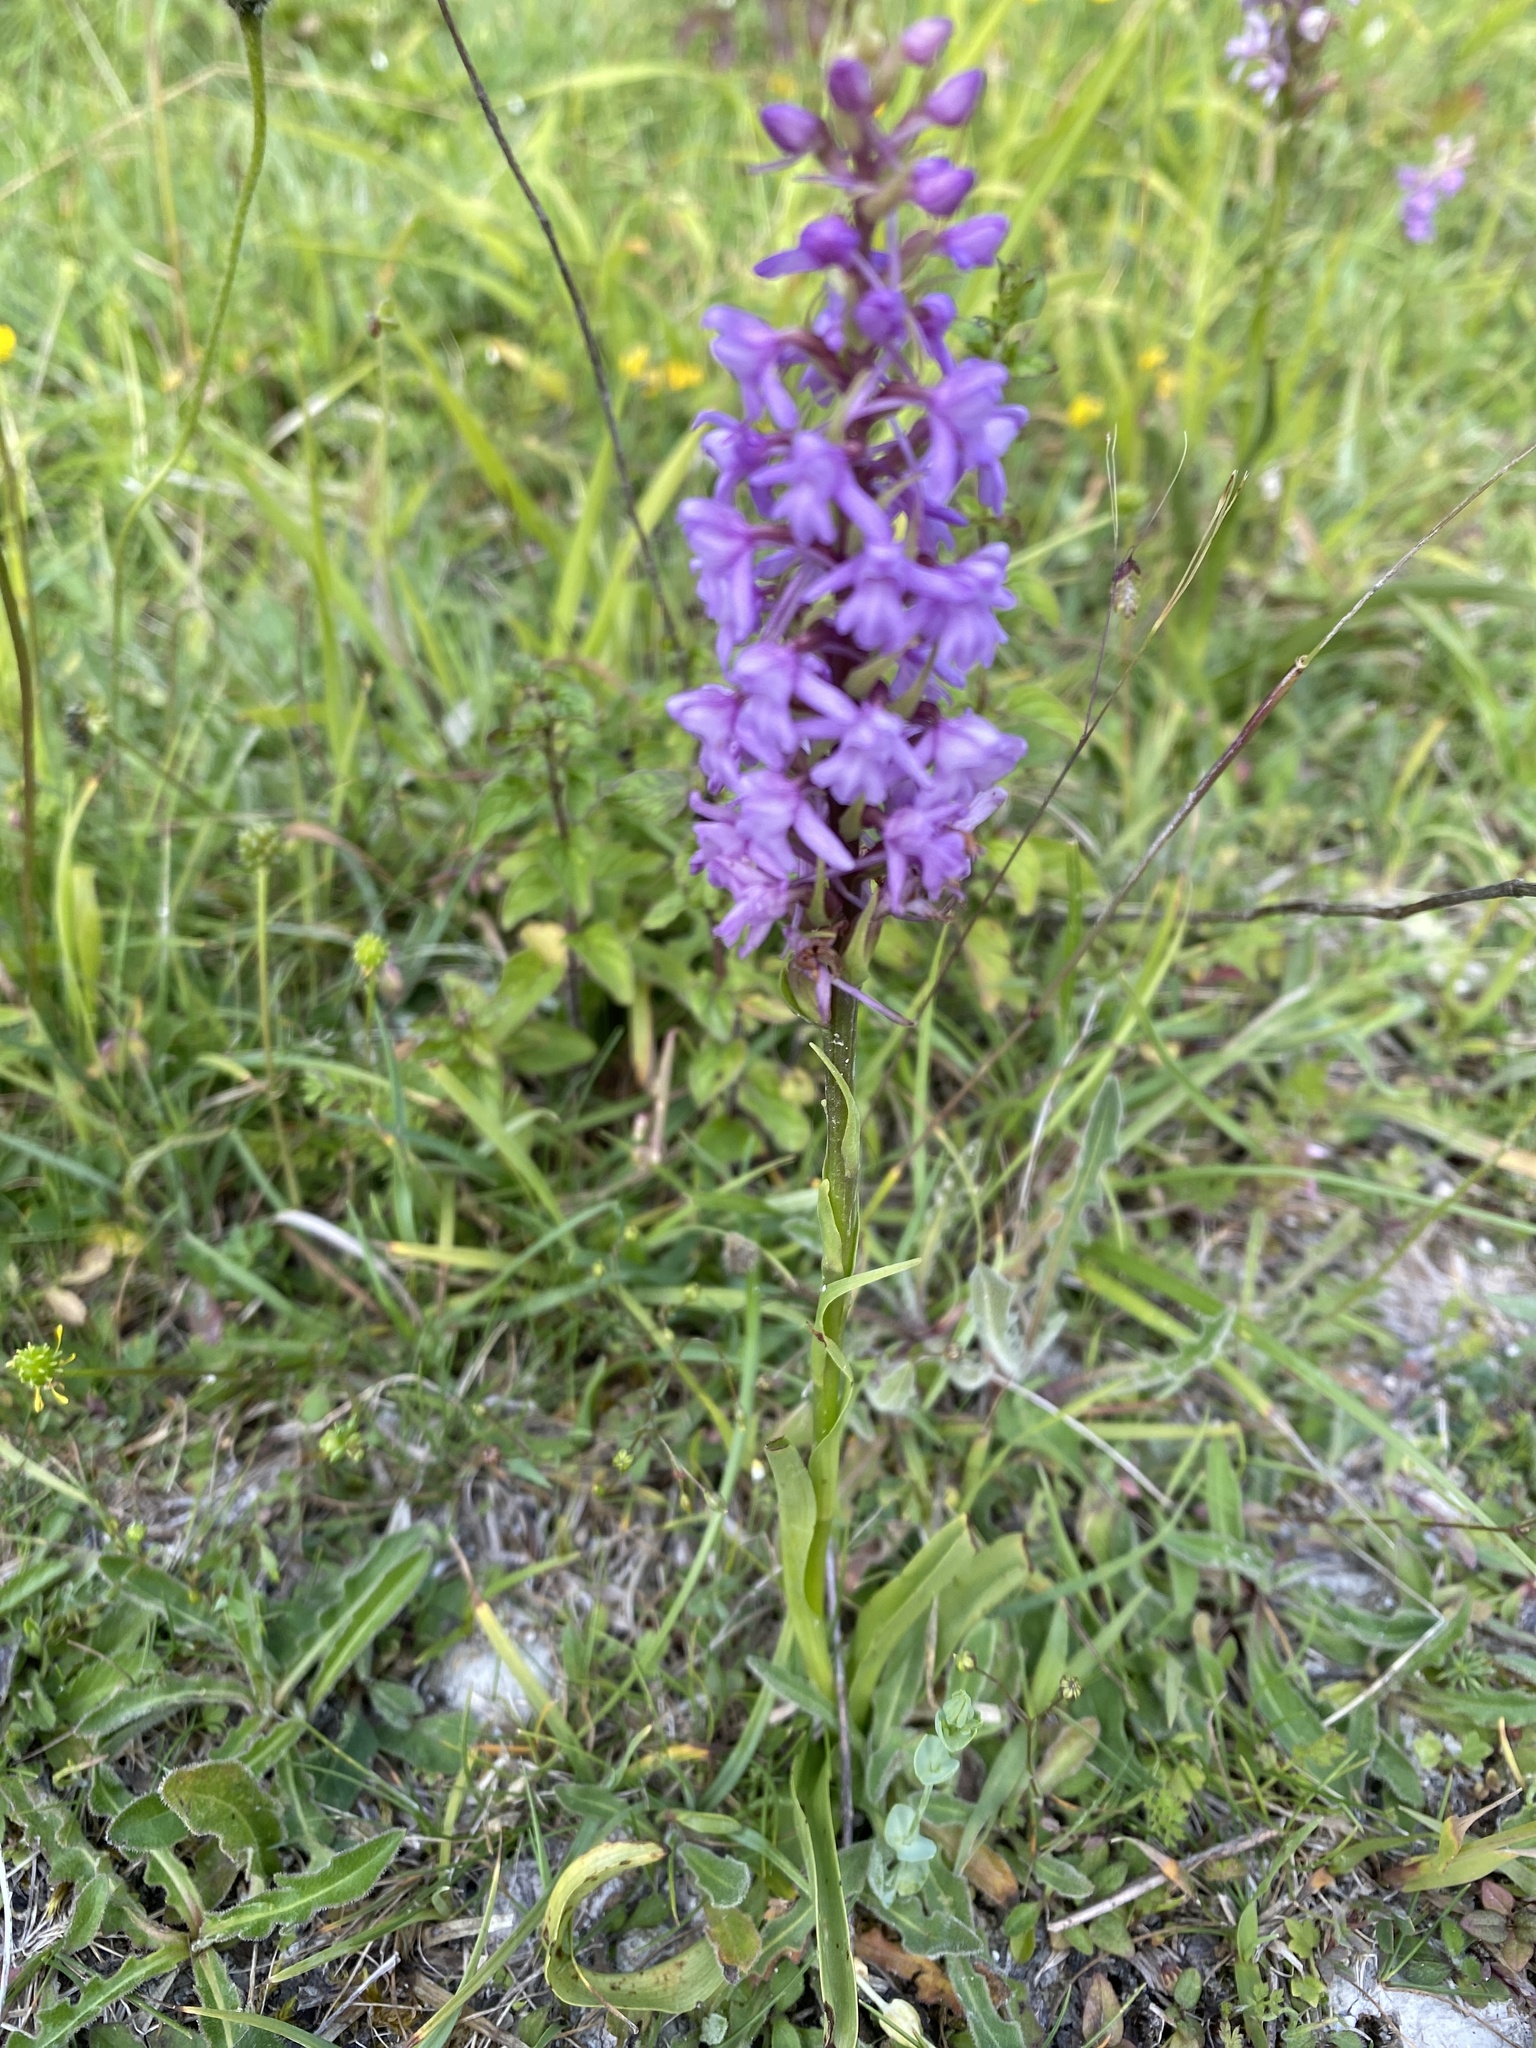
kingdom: Plantae
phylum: Tracheophyta
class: Liliopsida
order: Asparagales
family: Orchidaceae
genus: Gymnadenia
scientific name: Gymnadenia conopsea
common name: Fragrant orchid
